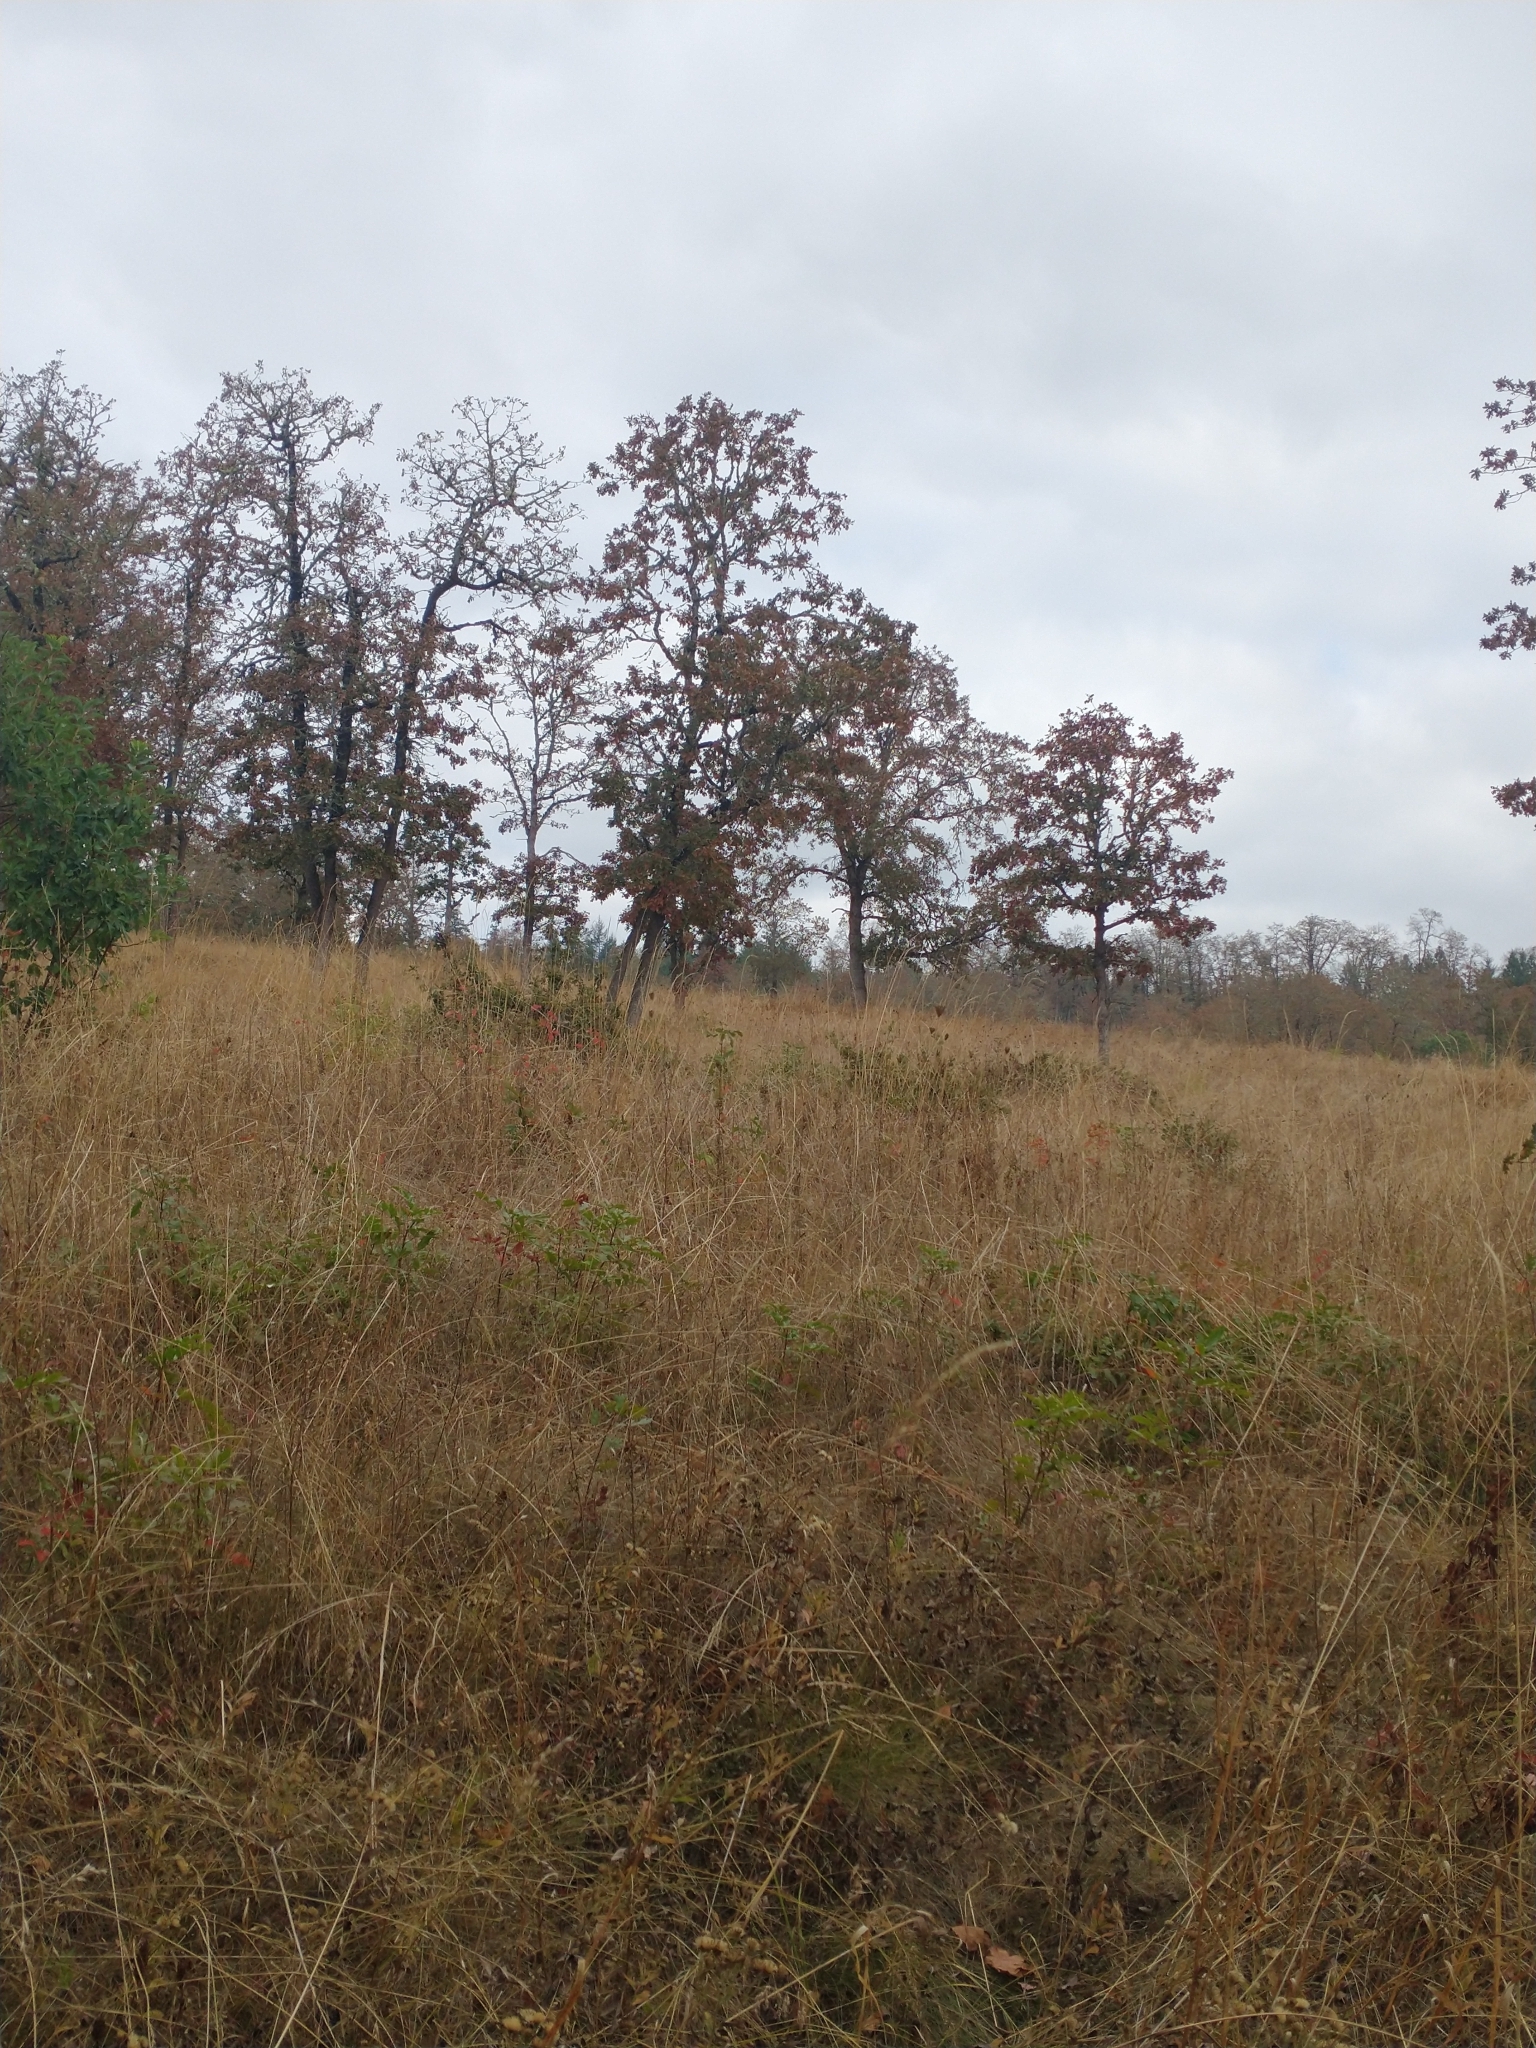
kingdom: Plantae
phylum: Tracheophyta
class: Magnoliopsida
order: Fagales
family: Fagaceae
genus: Quercus
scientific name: Quercus garryana
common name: Garry oak
